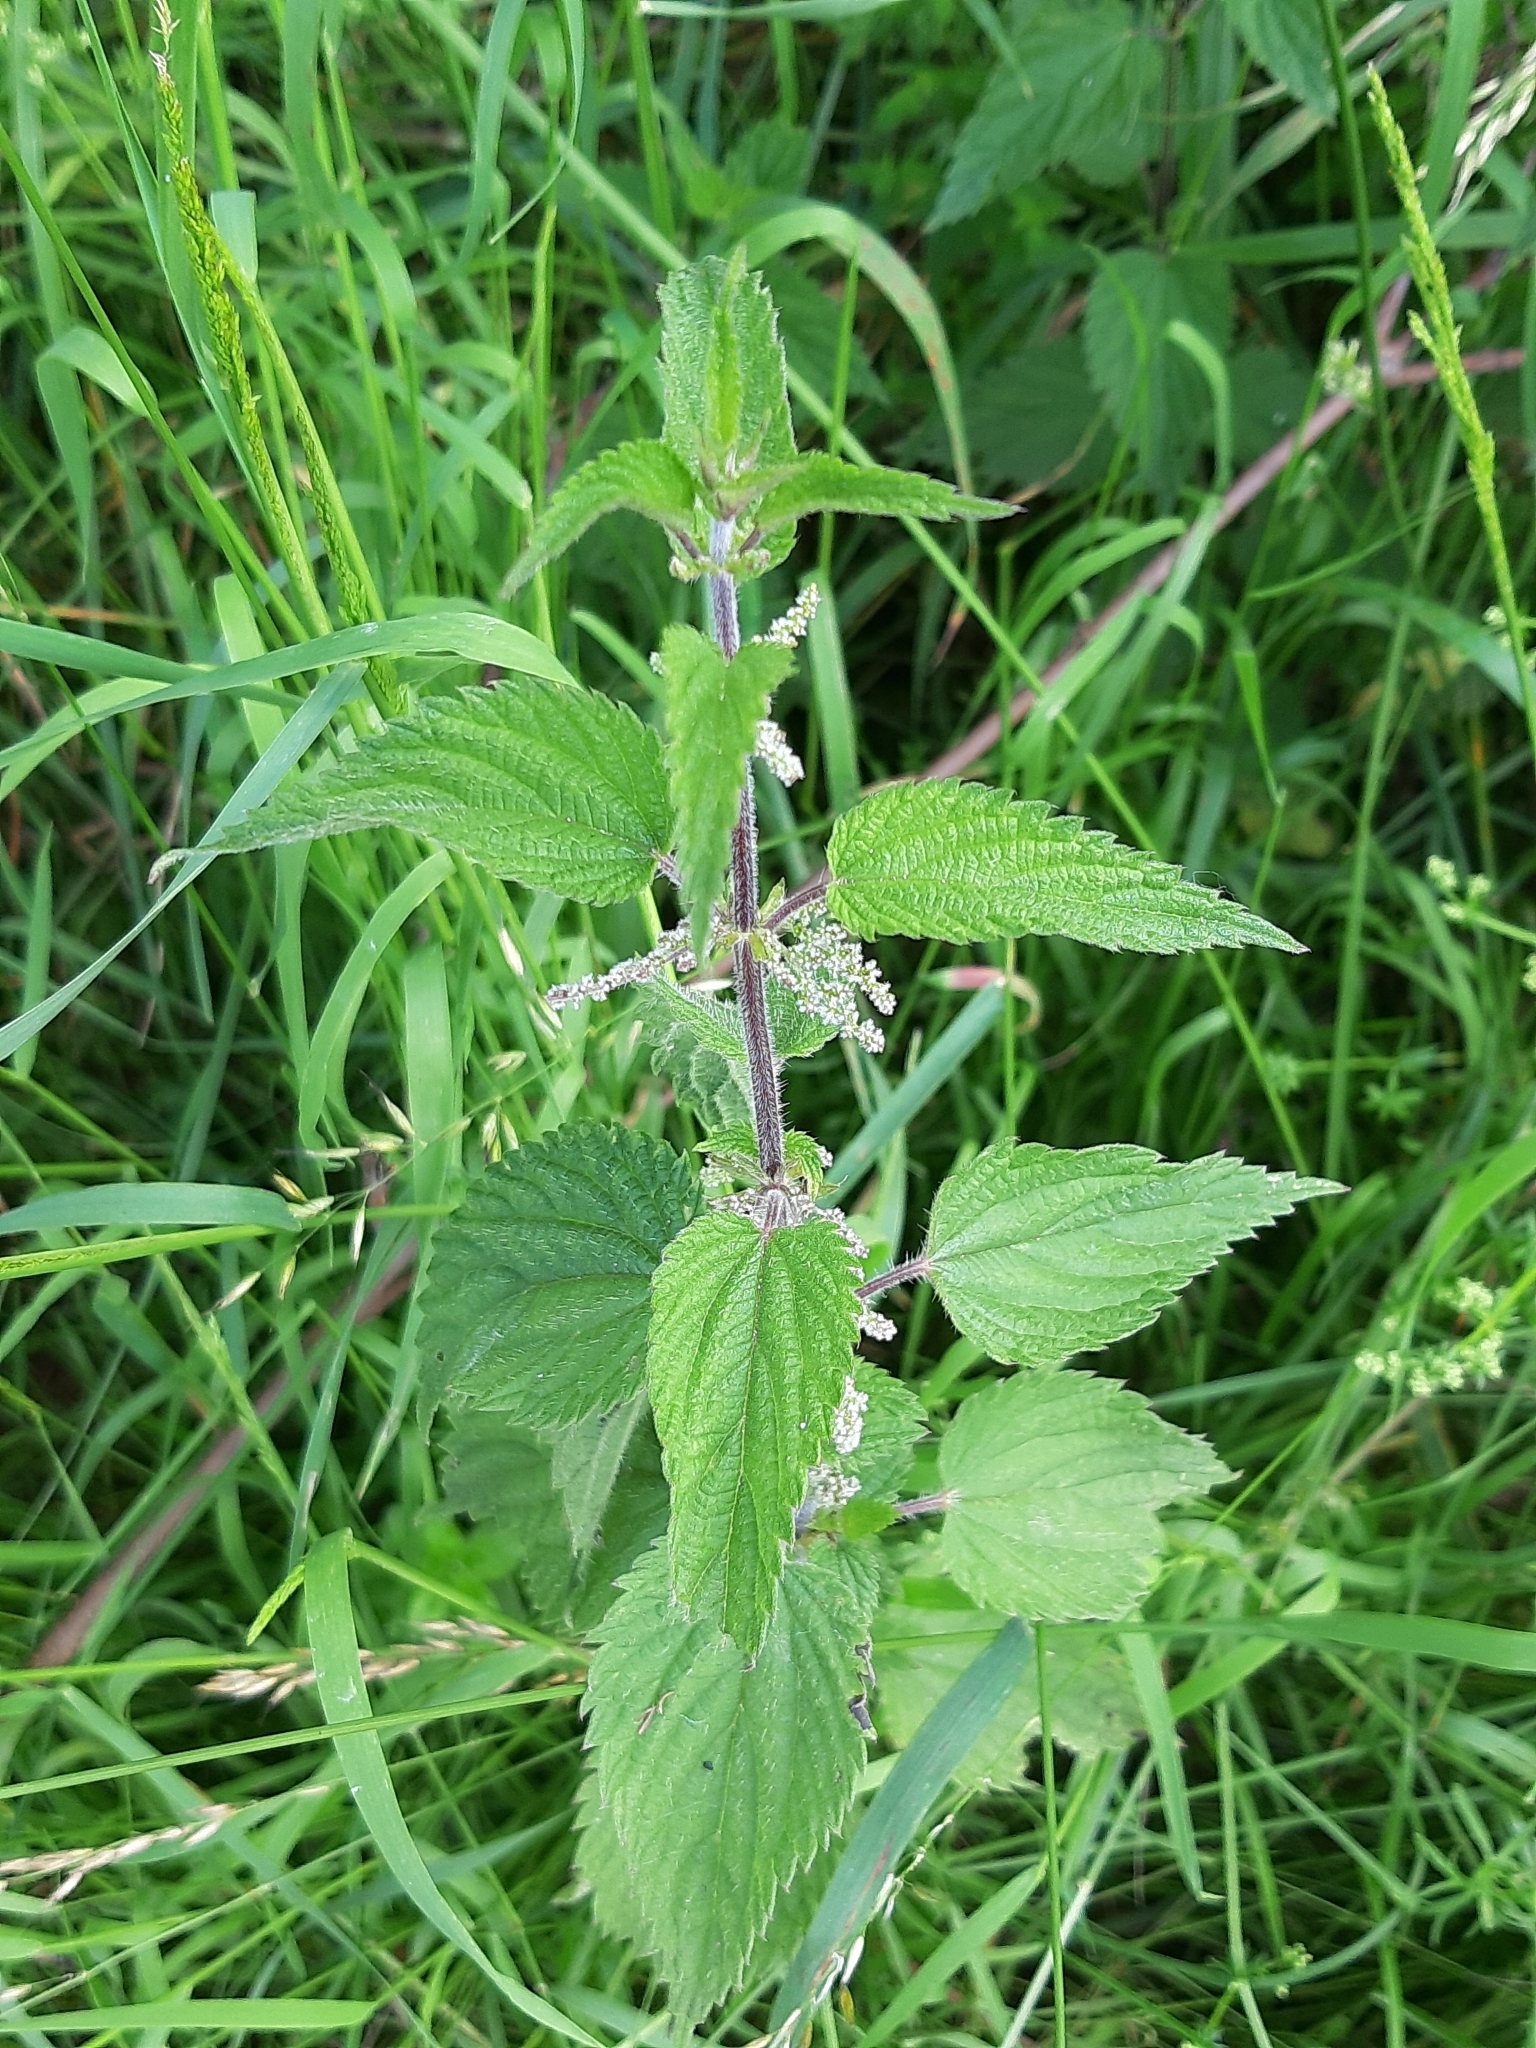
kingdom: Plantae
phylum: Tracheophyta
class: Magnoliopsida
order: Rosales
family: Urticaceae
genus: Urtica
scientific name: Urtica dioica
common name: Common nettle
